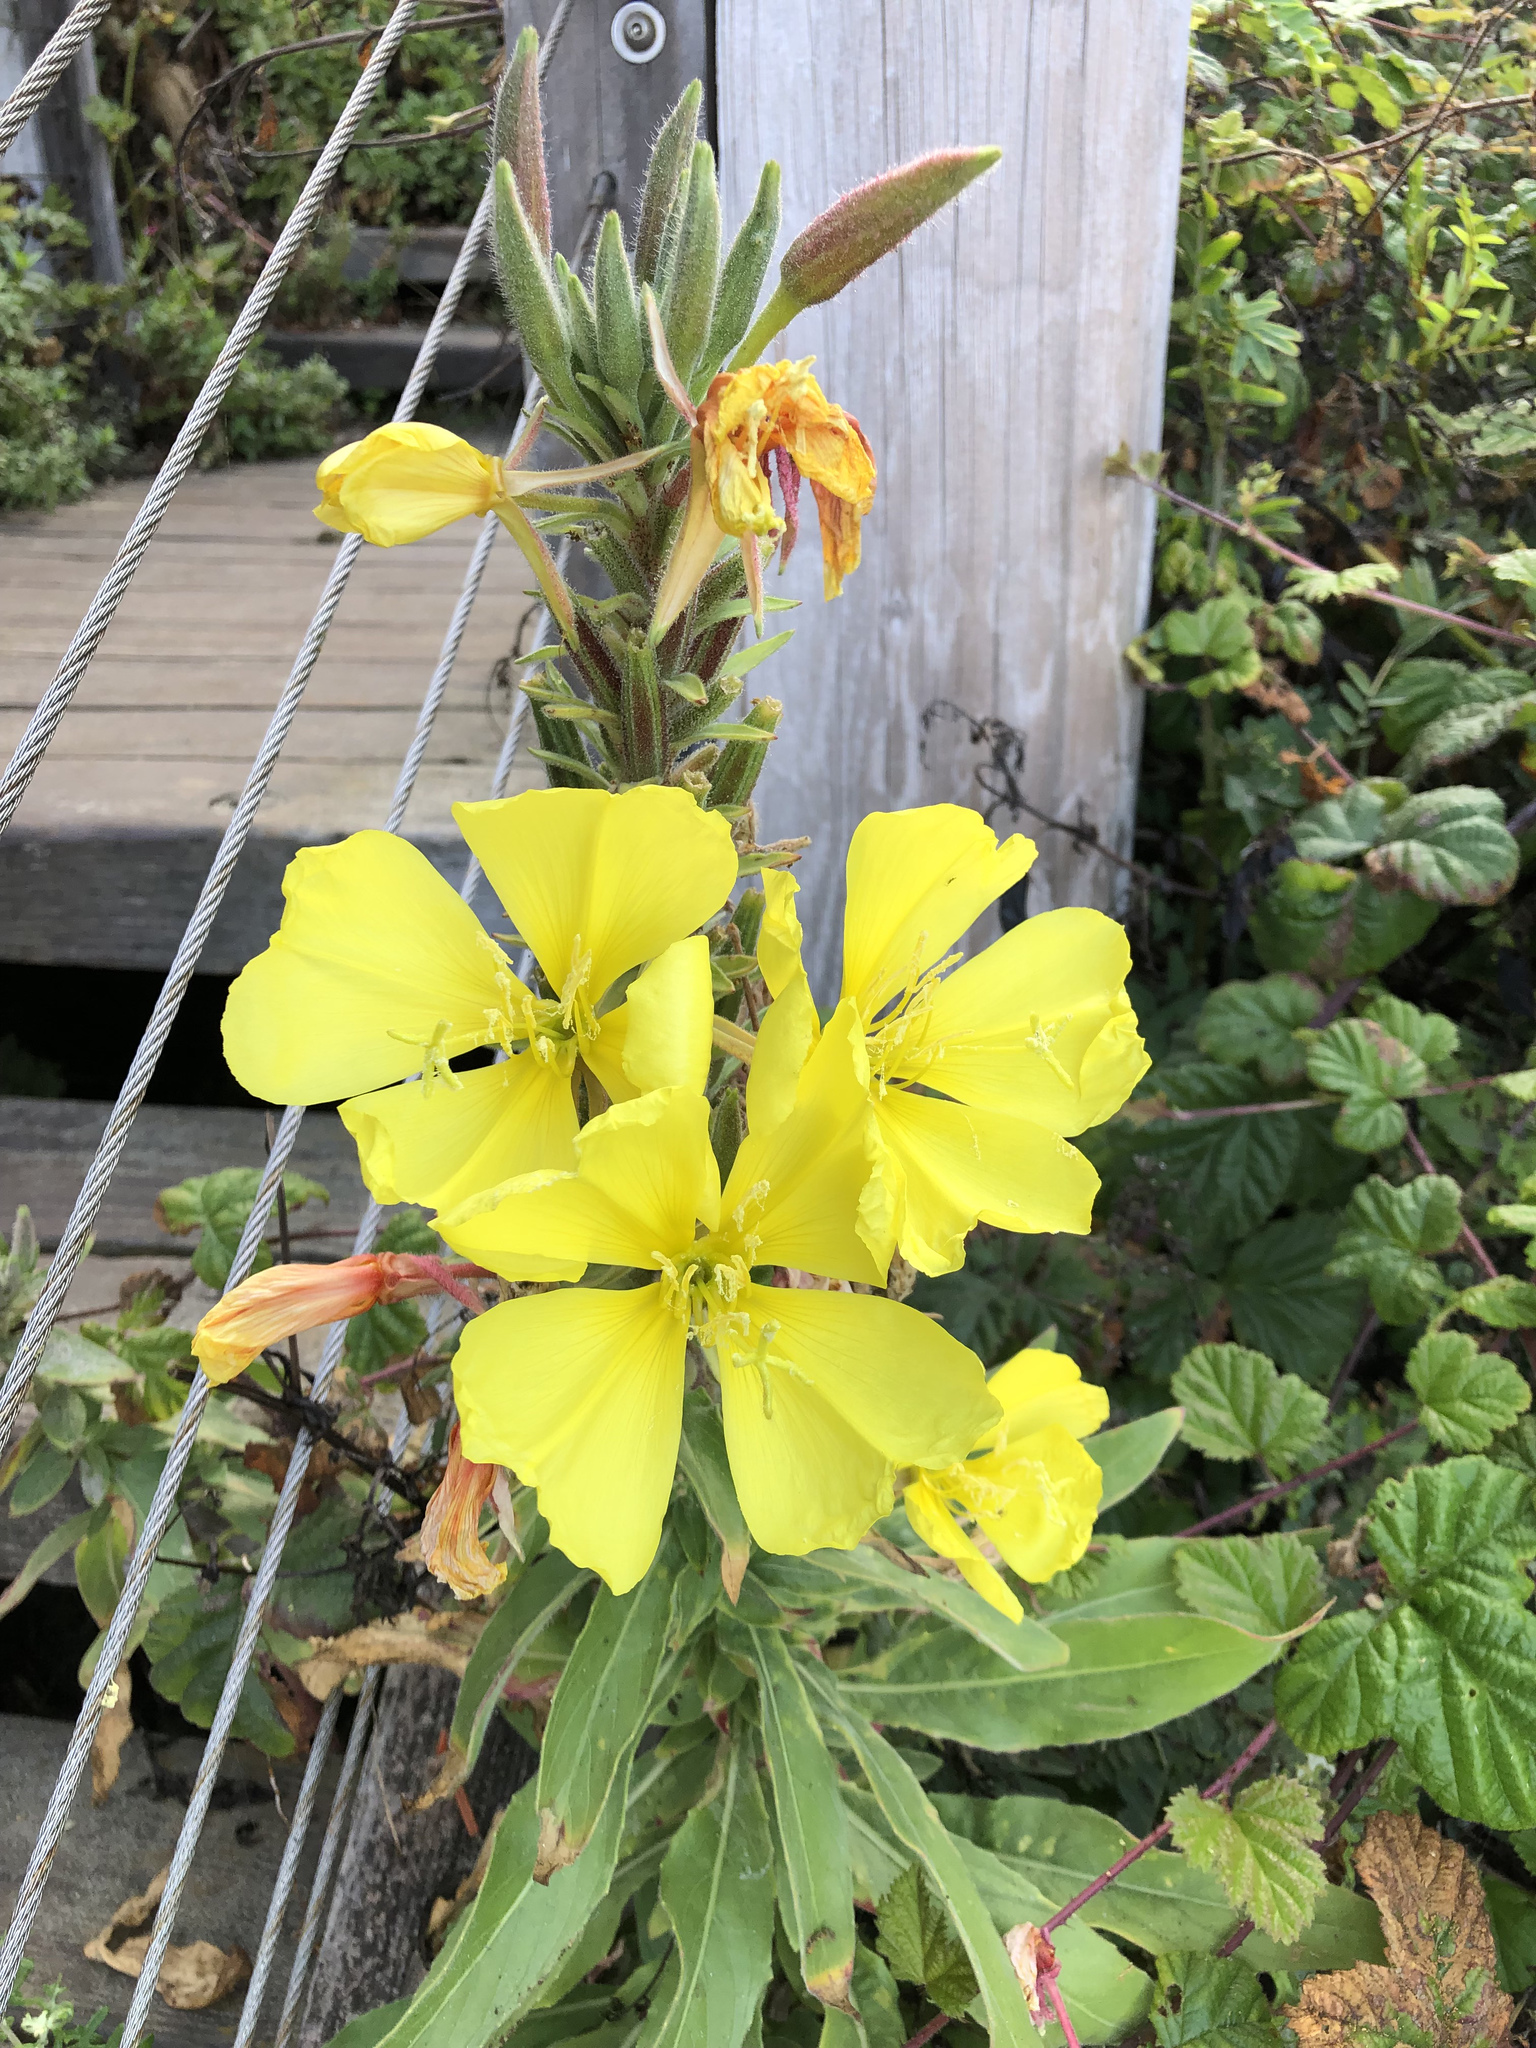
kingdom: Plantae
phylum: Tracheophyta
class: Magnoliopsida
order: Myrtales
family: Onagraceae
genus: Oenothera
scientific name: Oenothera elata
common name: Hooker's evening-primrose
